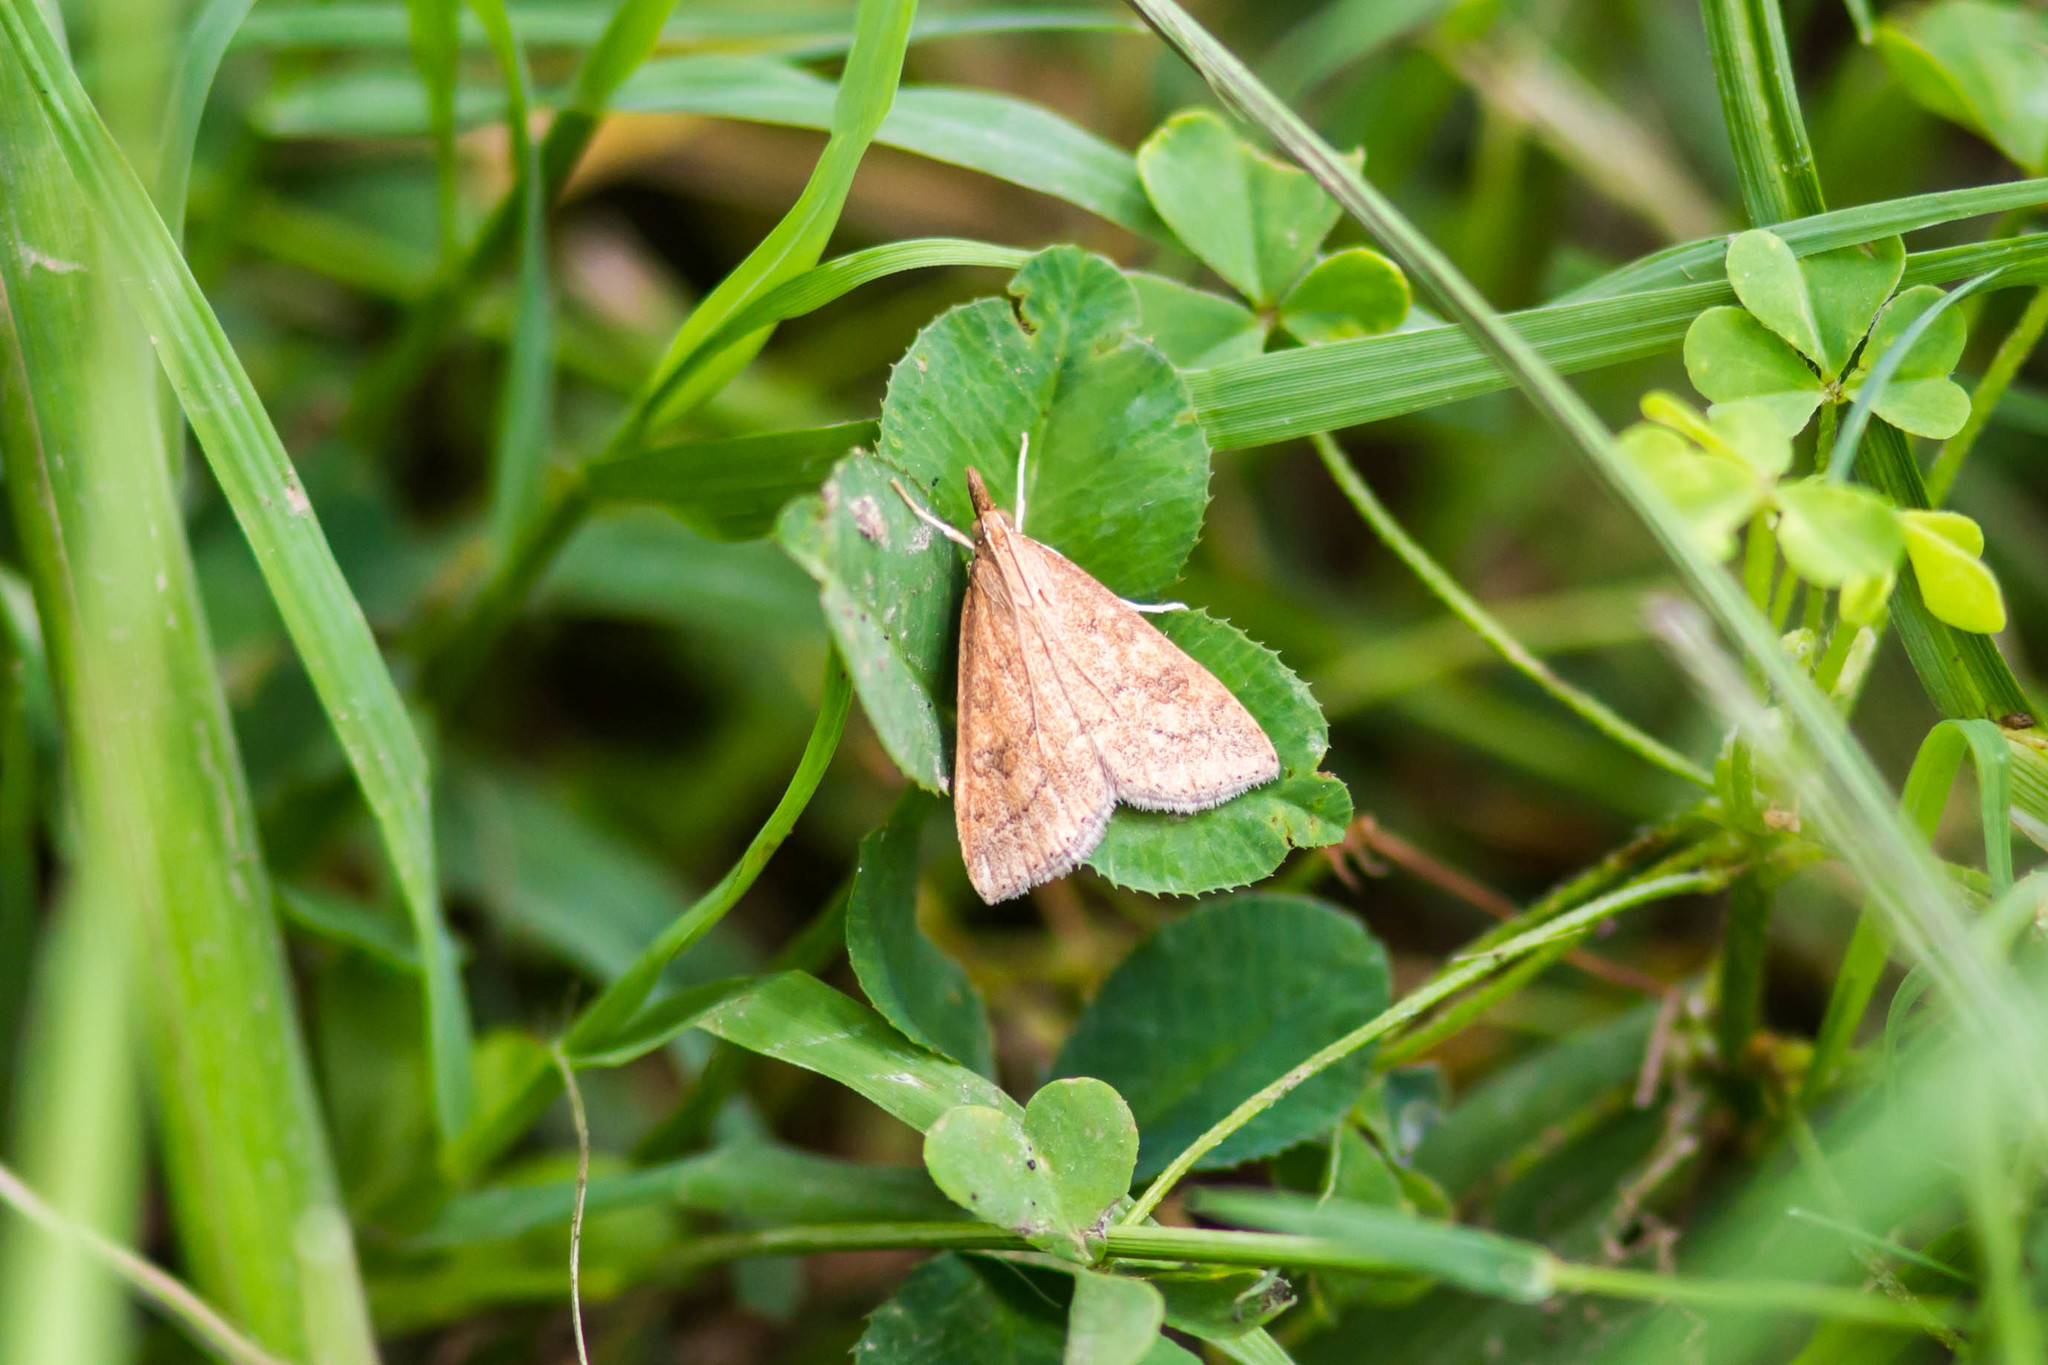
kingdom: Animalia
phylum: Arthropoda
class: Insecta
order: Lepidoptera
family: Crambidae
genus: Udea
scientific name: Udea rubigalis
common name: Celery leaftier moth
